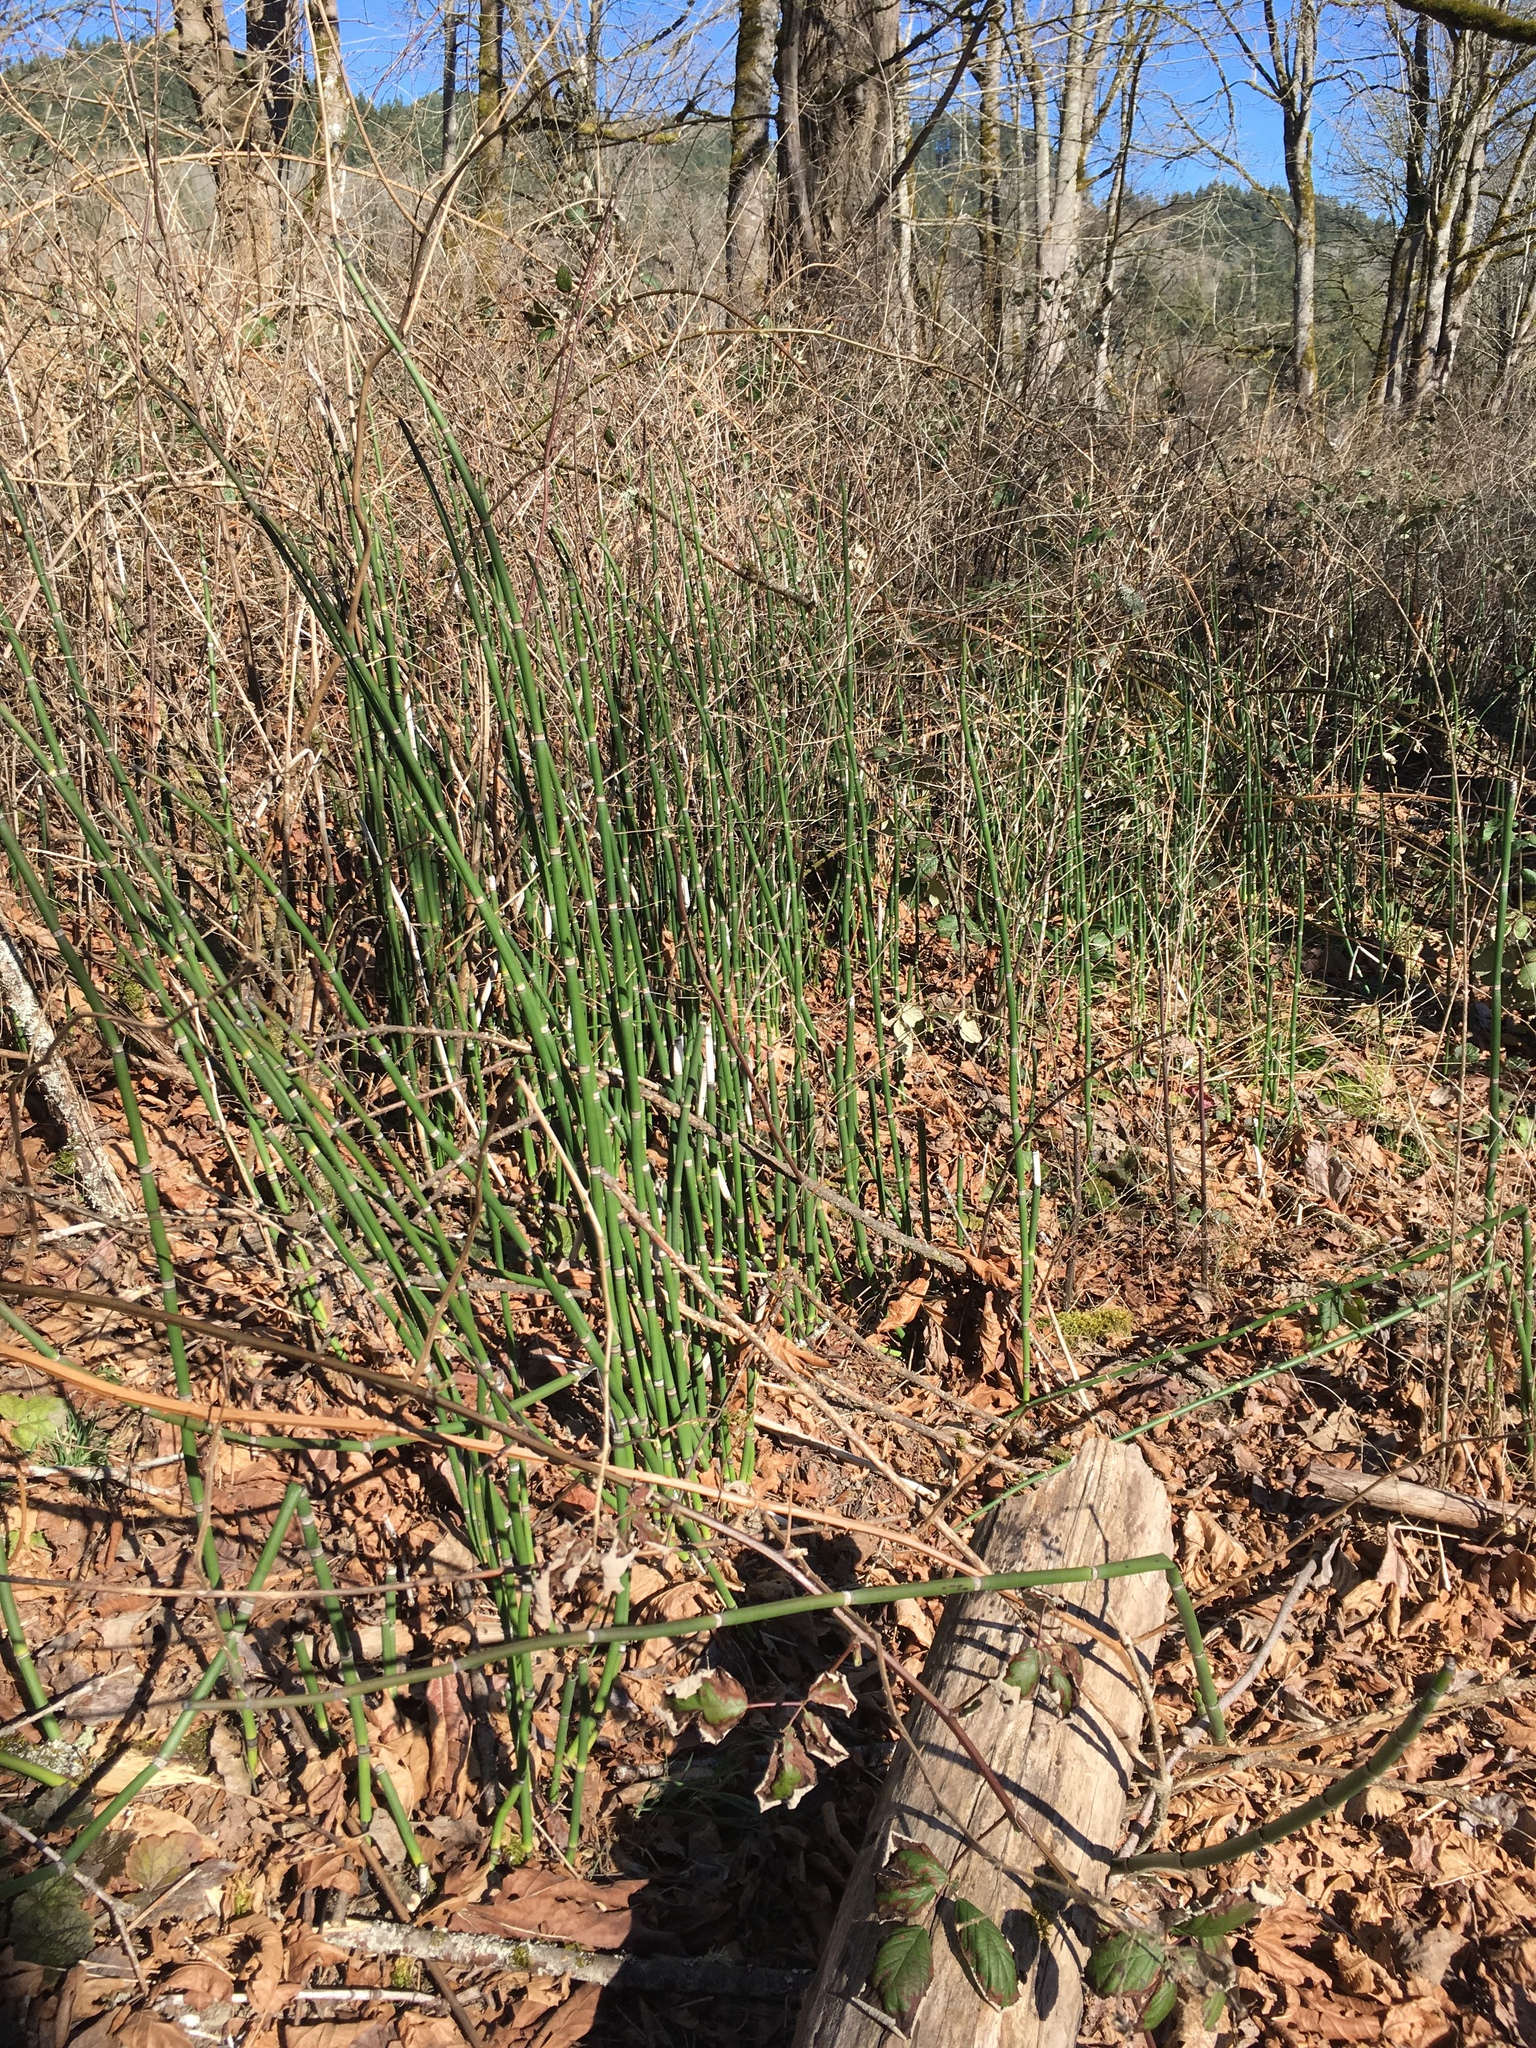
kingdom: Plantae
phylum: Tracheophyta
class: Polypodiopsida
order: Equisetales
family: Equisetaceae
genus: Equisetum
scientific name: Equisetum hyemale
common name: Rough horsetail
